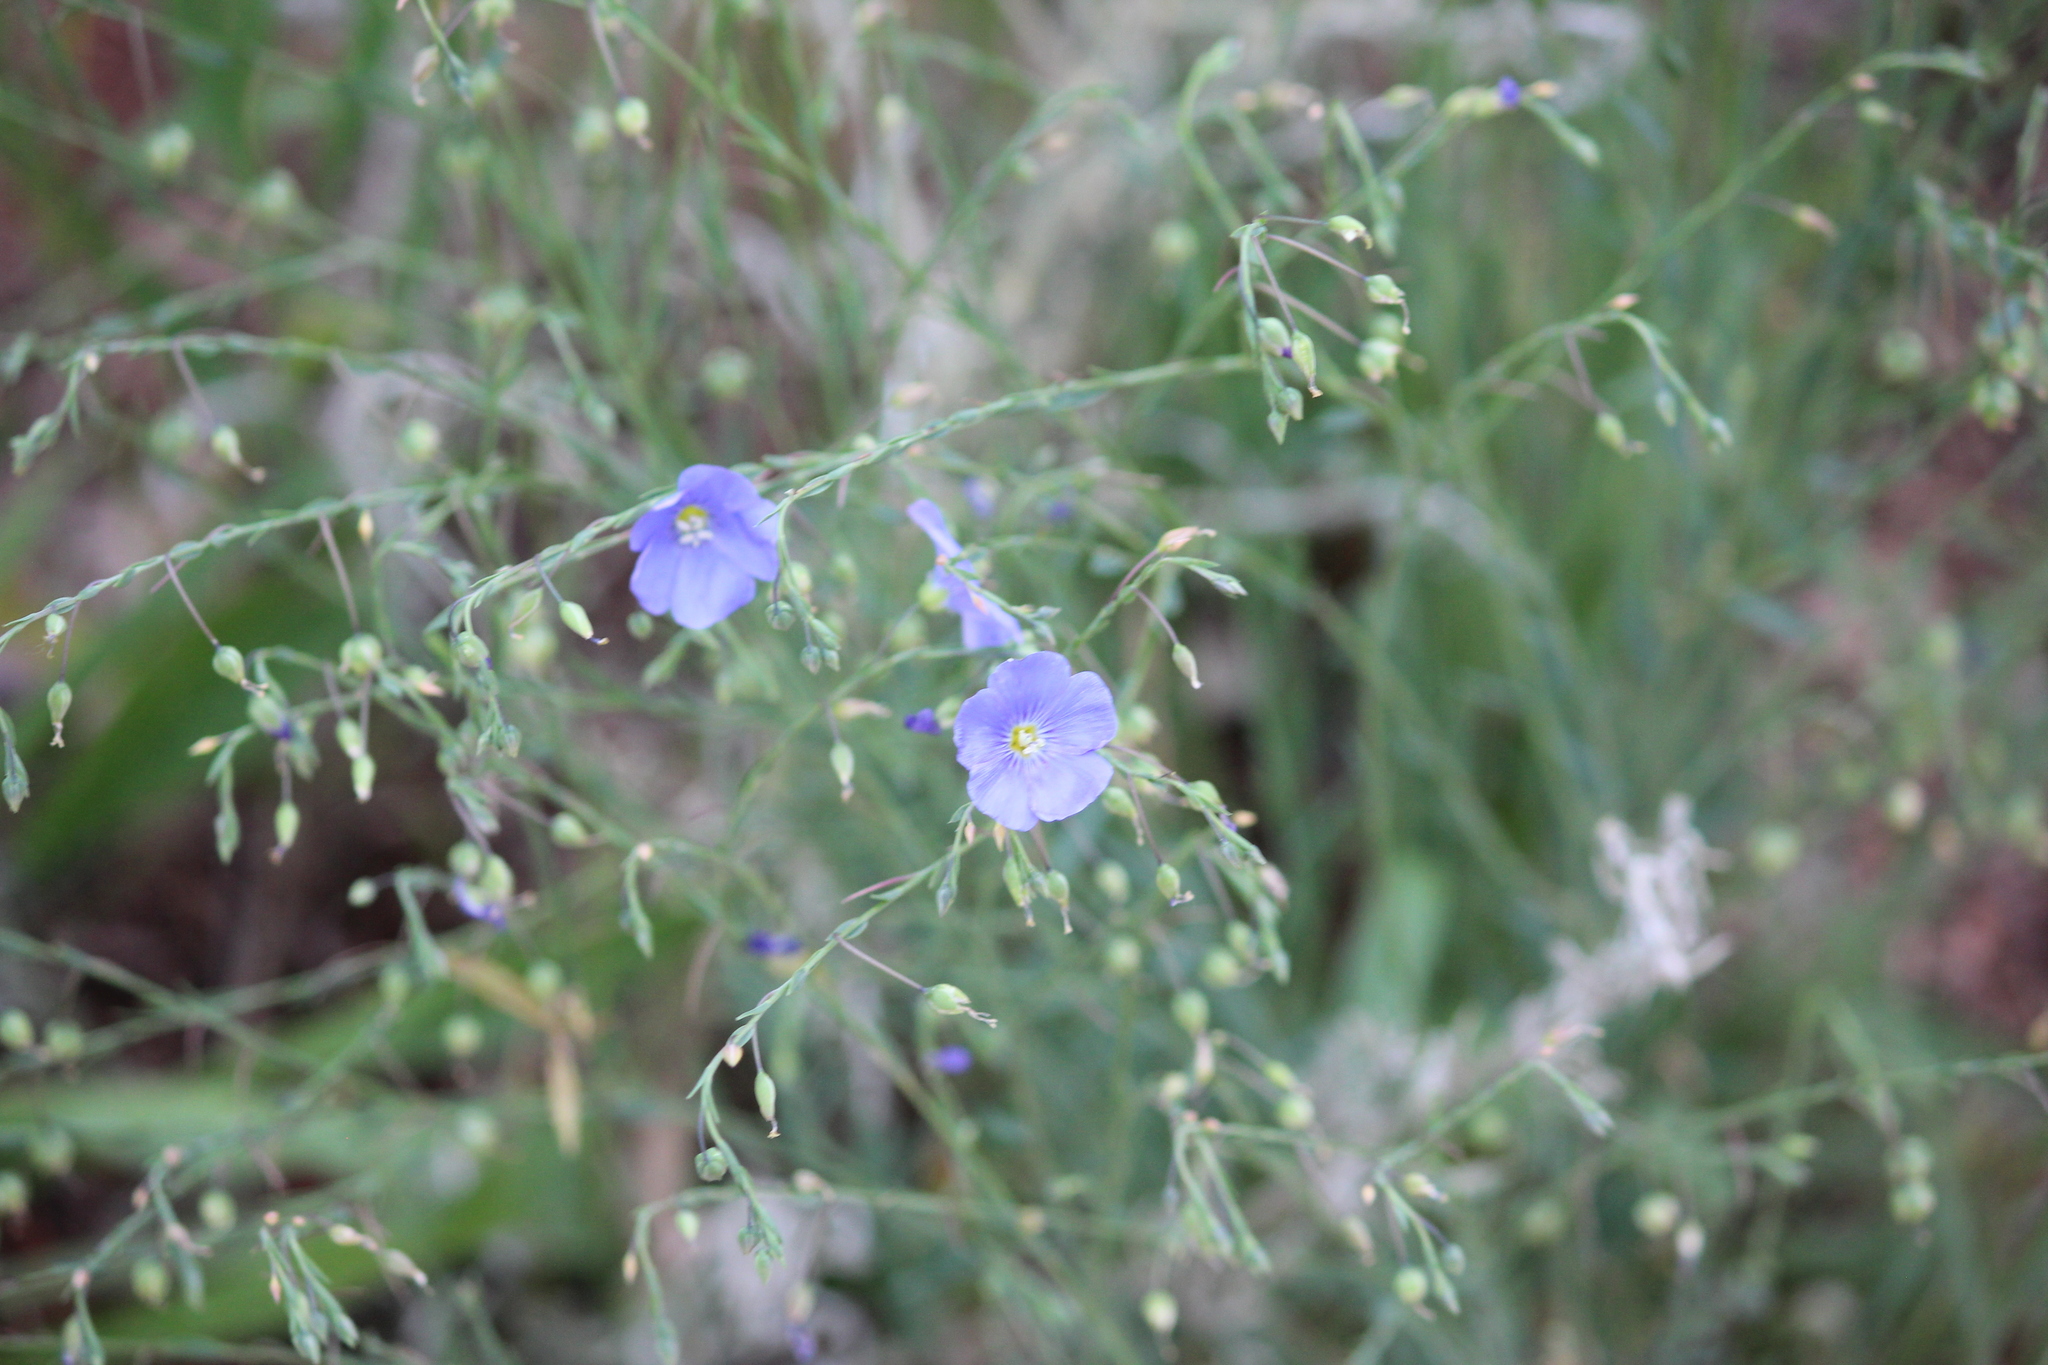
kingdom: Plantae
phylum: Tracheophyta
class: Magnoliopsida
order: Malpighiales
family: Linaceae
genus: Linum
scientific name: Linum lewisii
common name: Prairie flax
